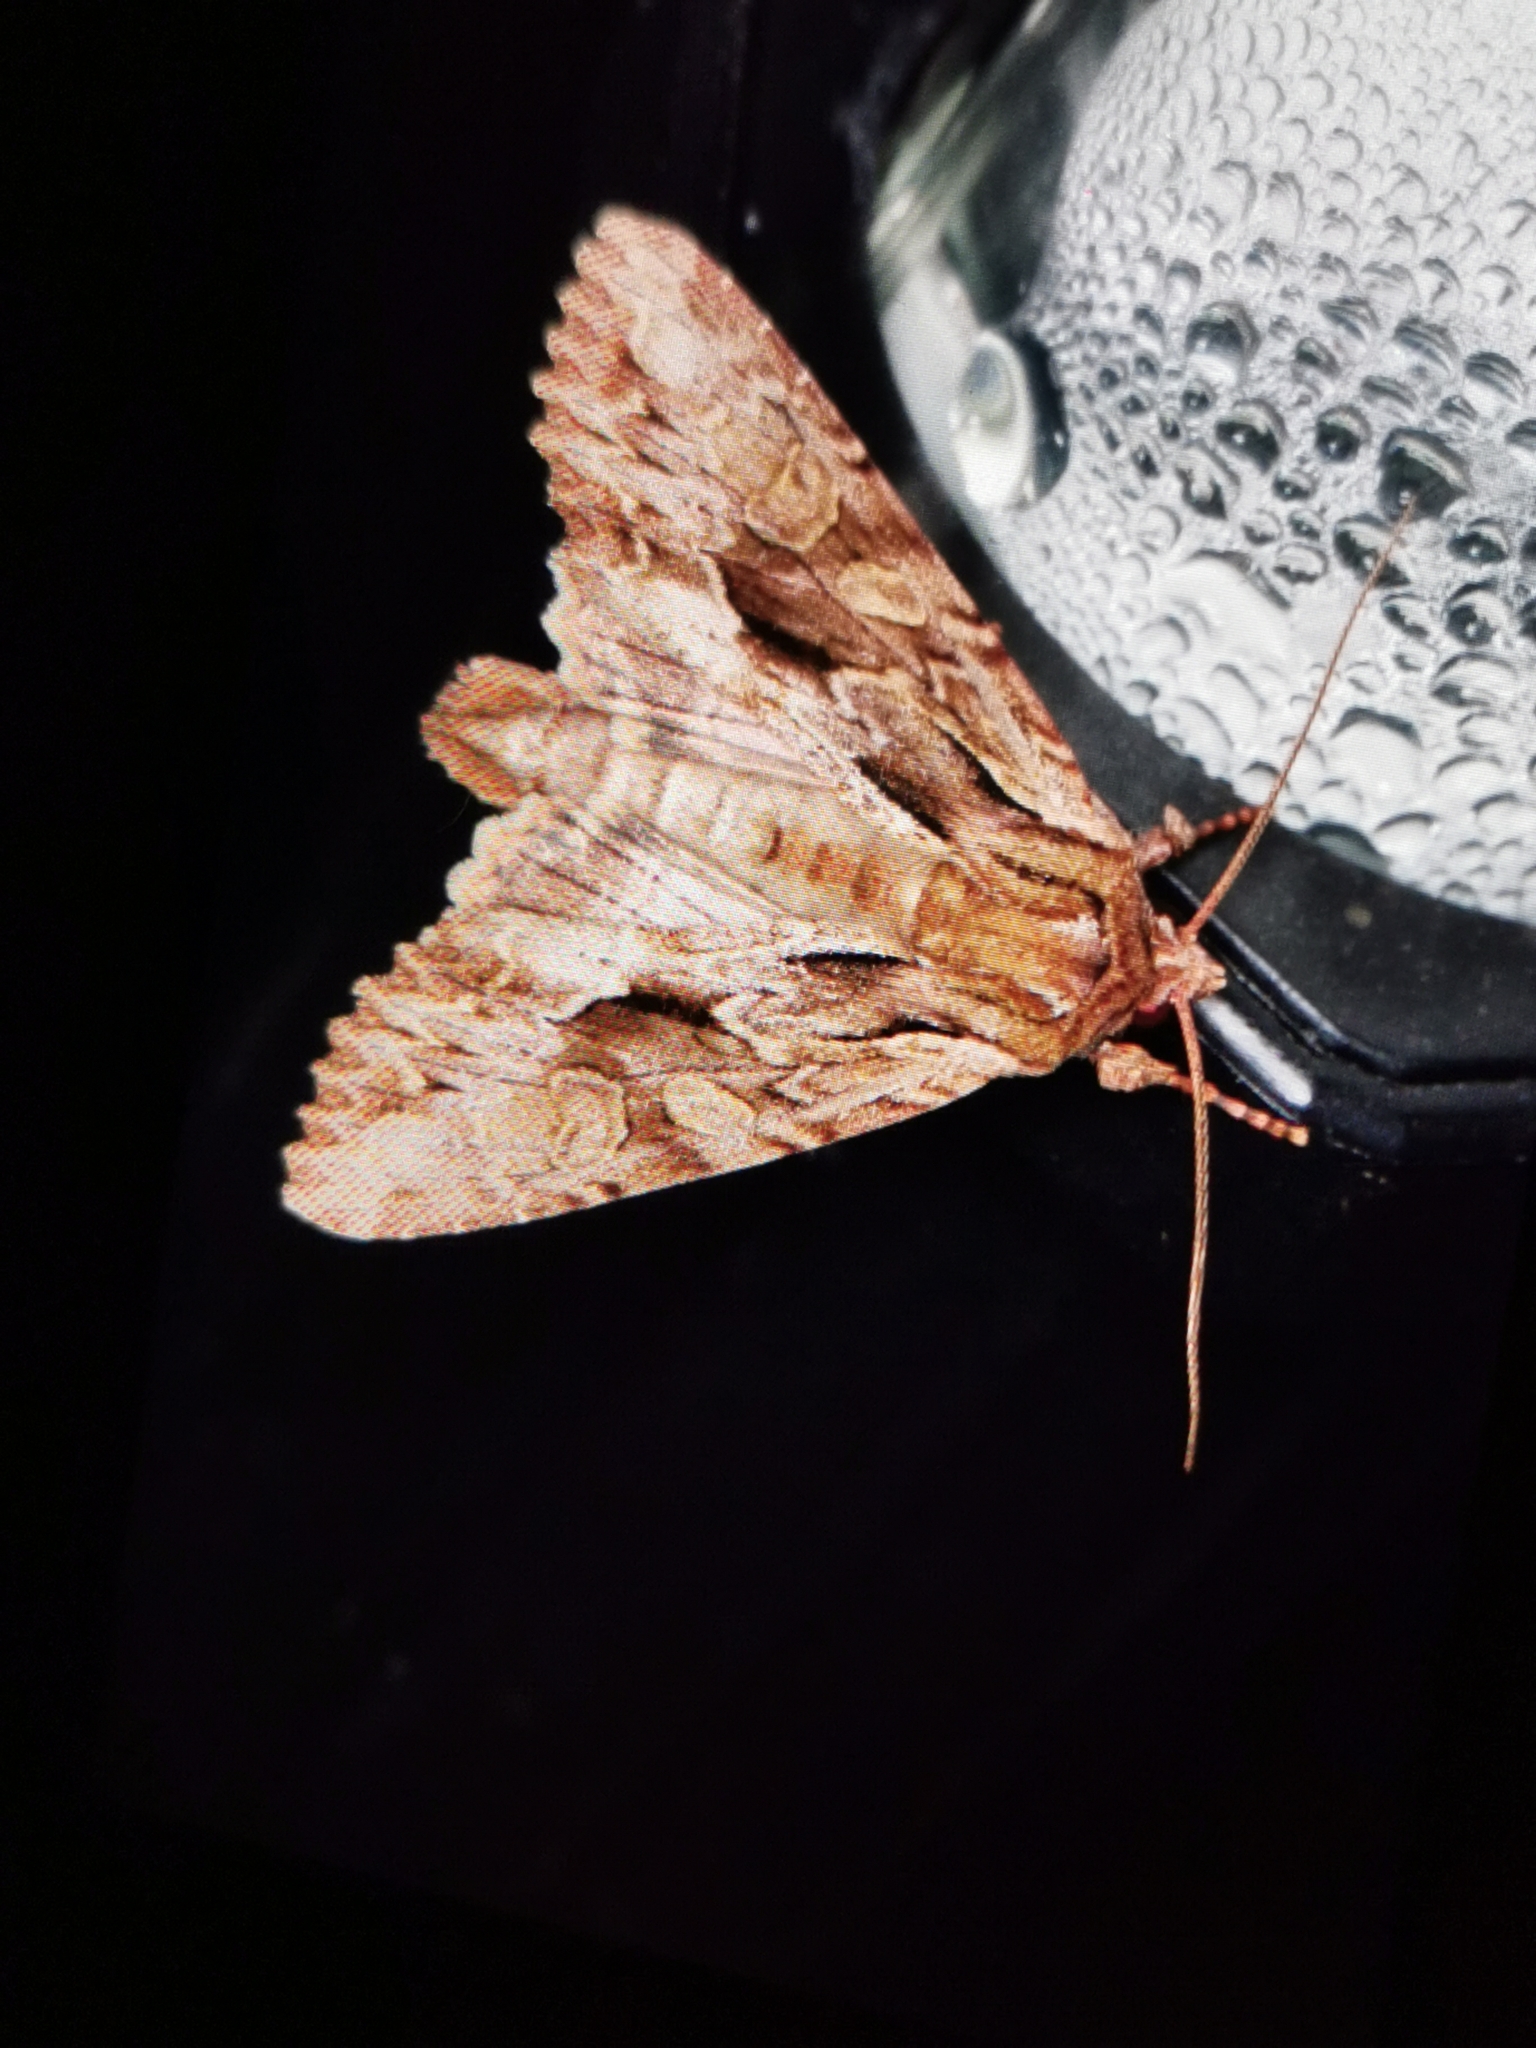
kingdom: Animalia
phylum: Arthropoda
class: Insecta
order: Lepidoptera
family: Noctuidae
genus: Apamea
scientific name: Apamea monoglypha
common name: Dark arches
